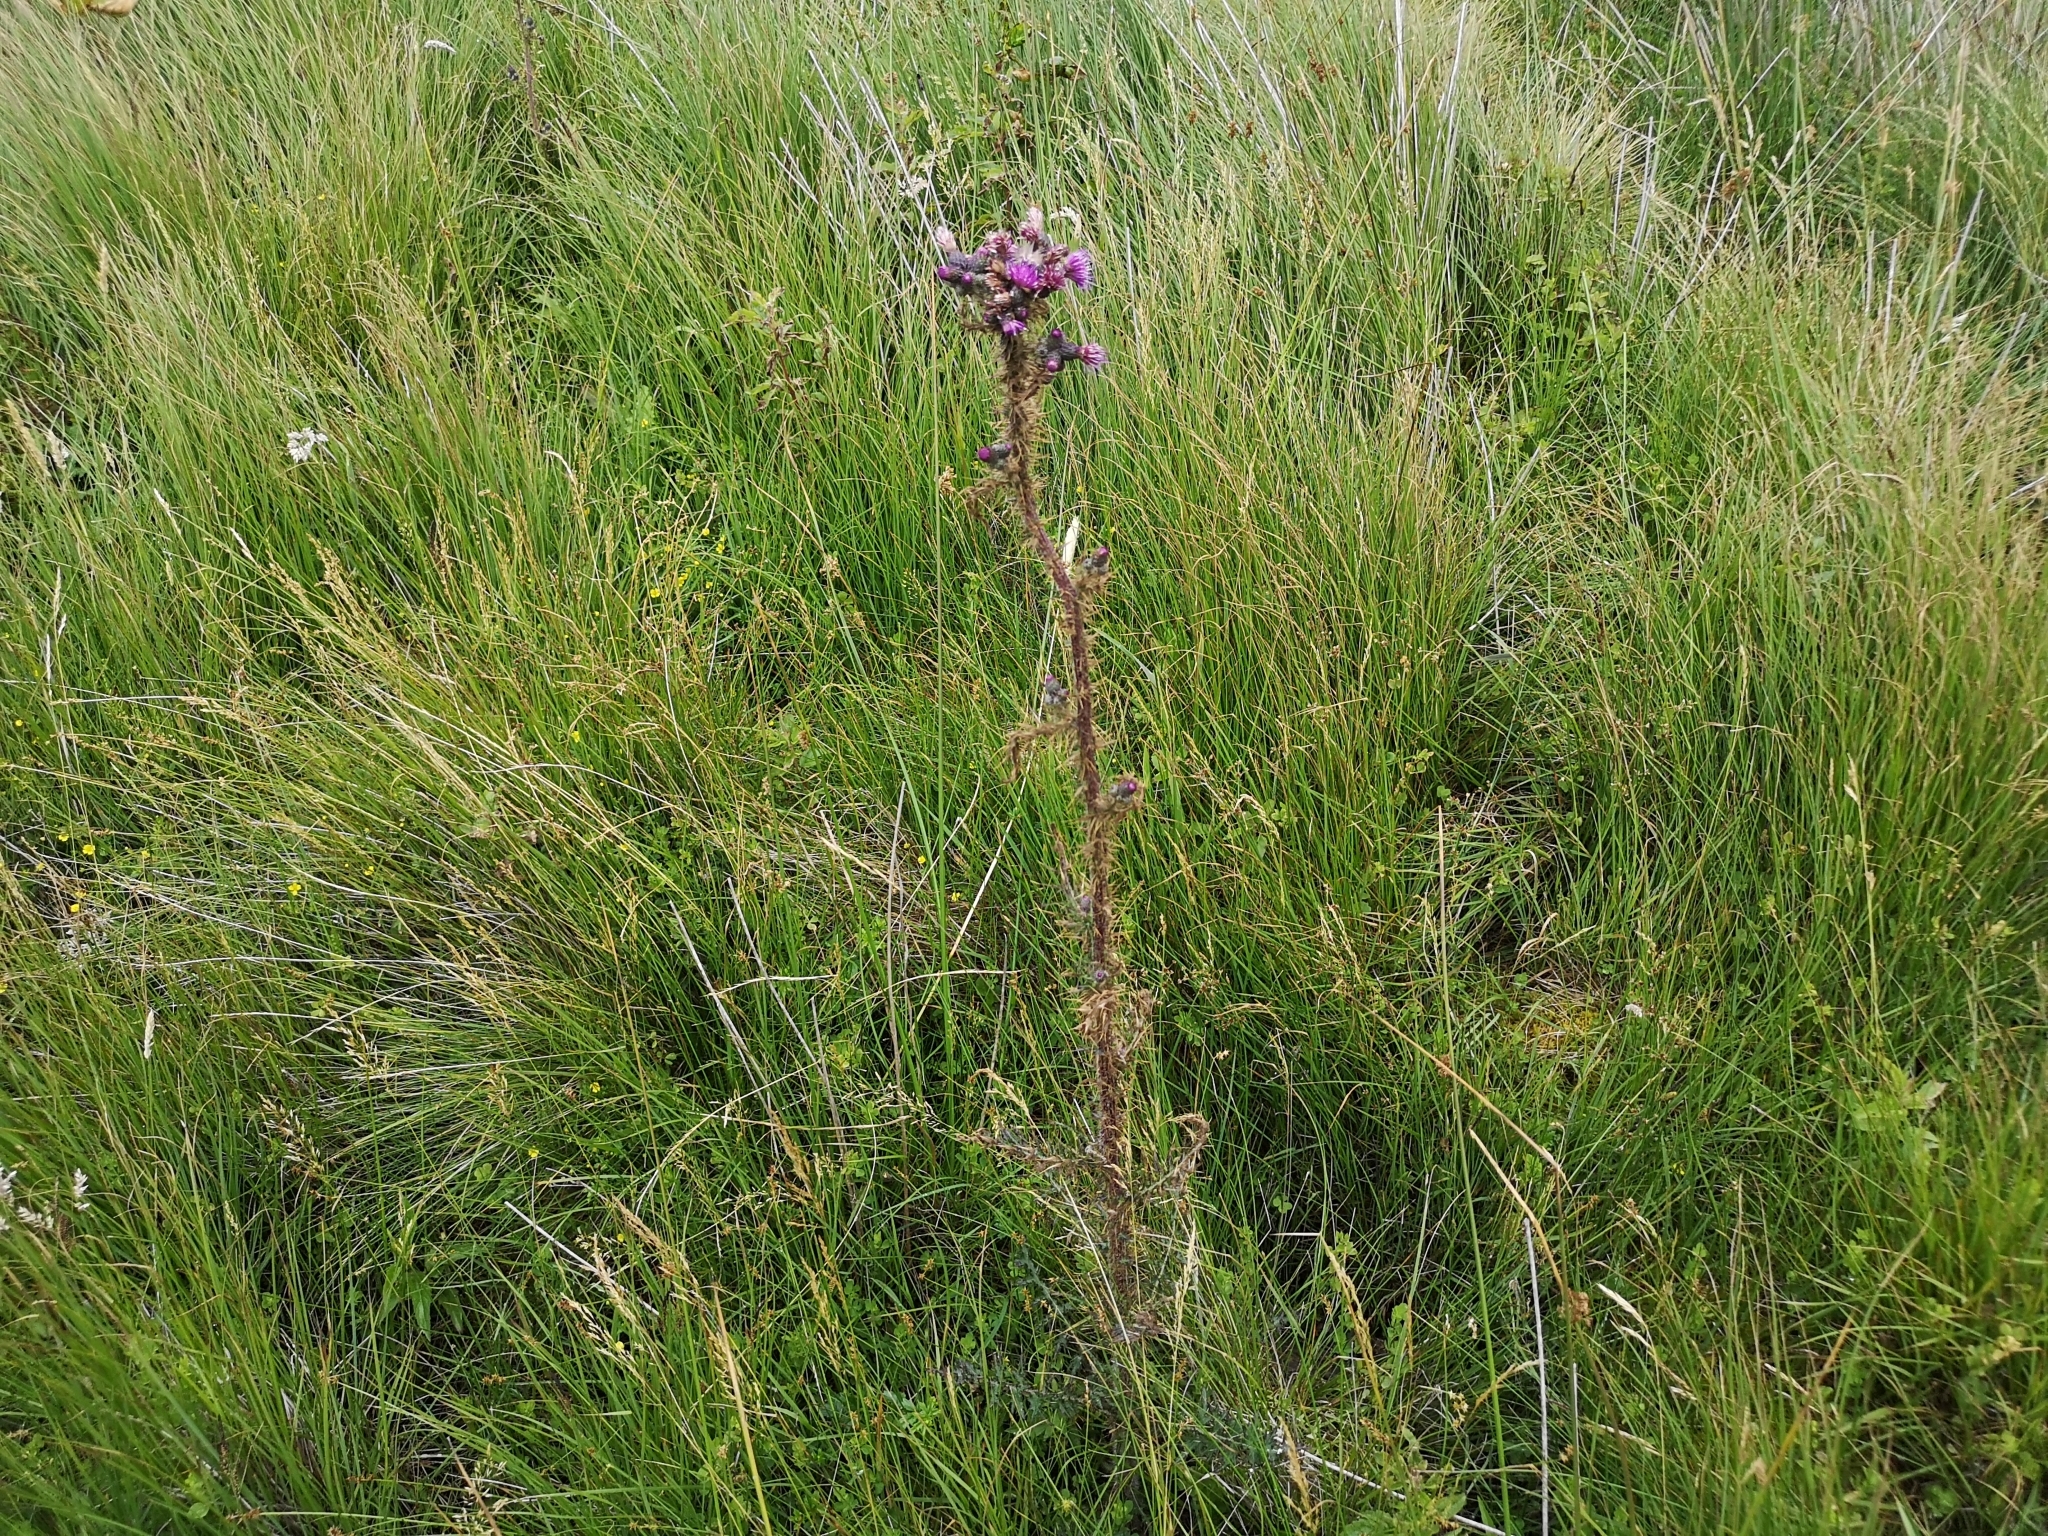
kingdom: Plantae
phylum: Tracheophyta
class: Magnoliopsida
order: Asterales
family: Asteraceae
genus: Cirsium
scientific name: Cirsium palustre
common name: Marsh thistle
